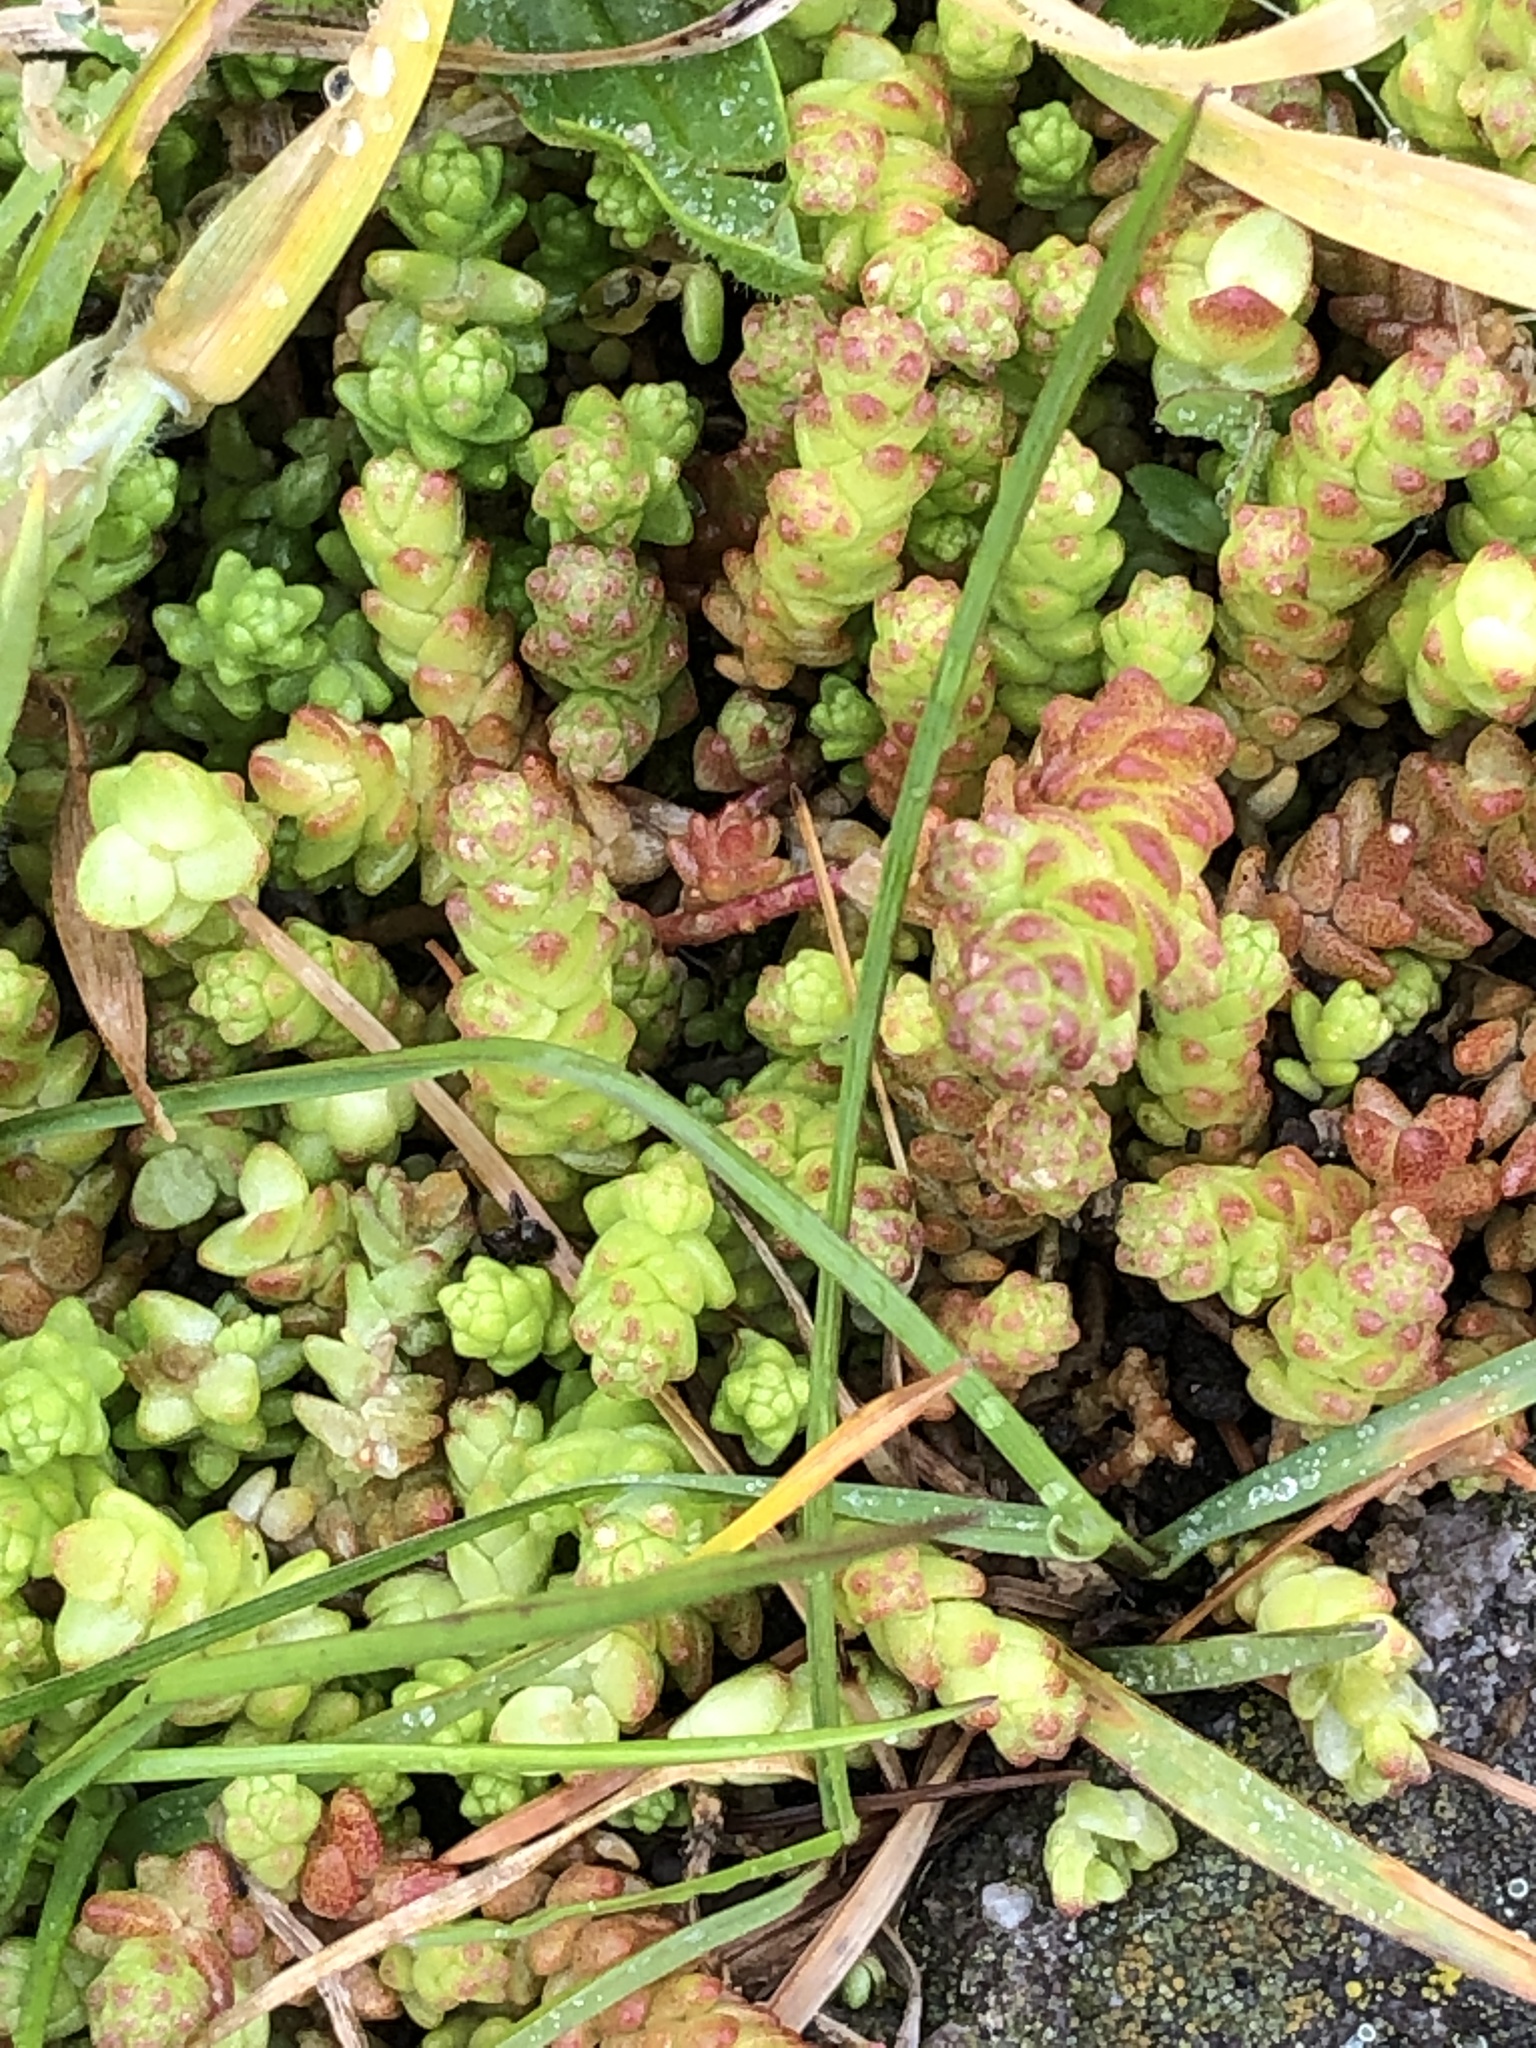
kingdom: Plantae
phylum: Tracheophyta
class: Magnoliopsida
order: Saxifragales
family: Crassulaceae
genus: Sedum
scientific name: Sedum acre
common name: Biting stonecrop
